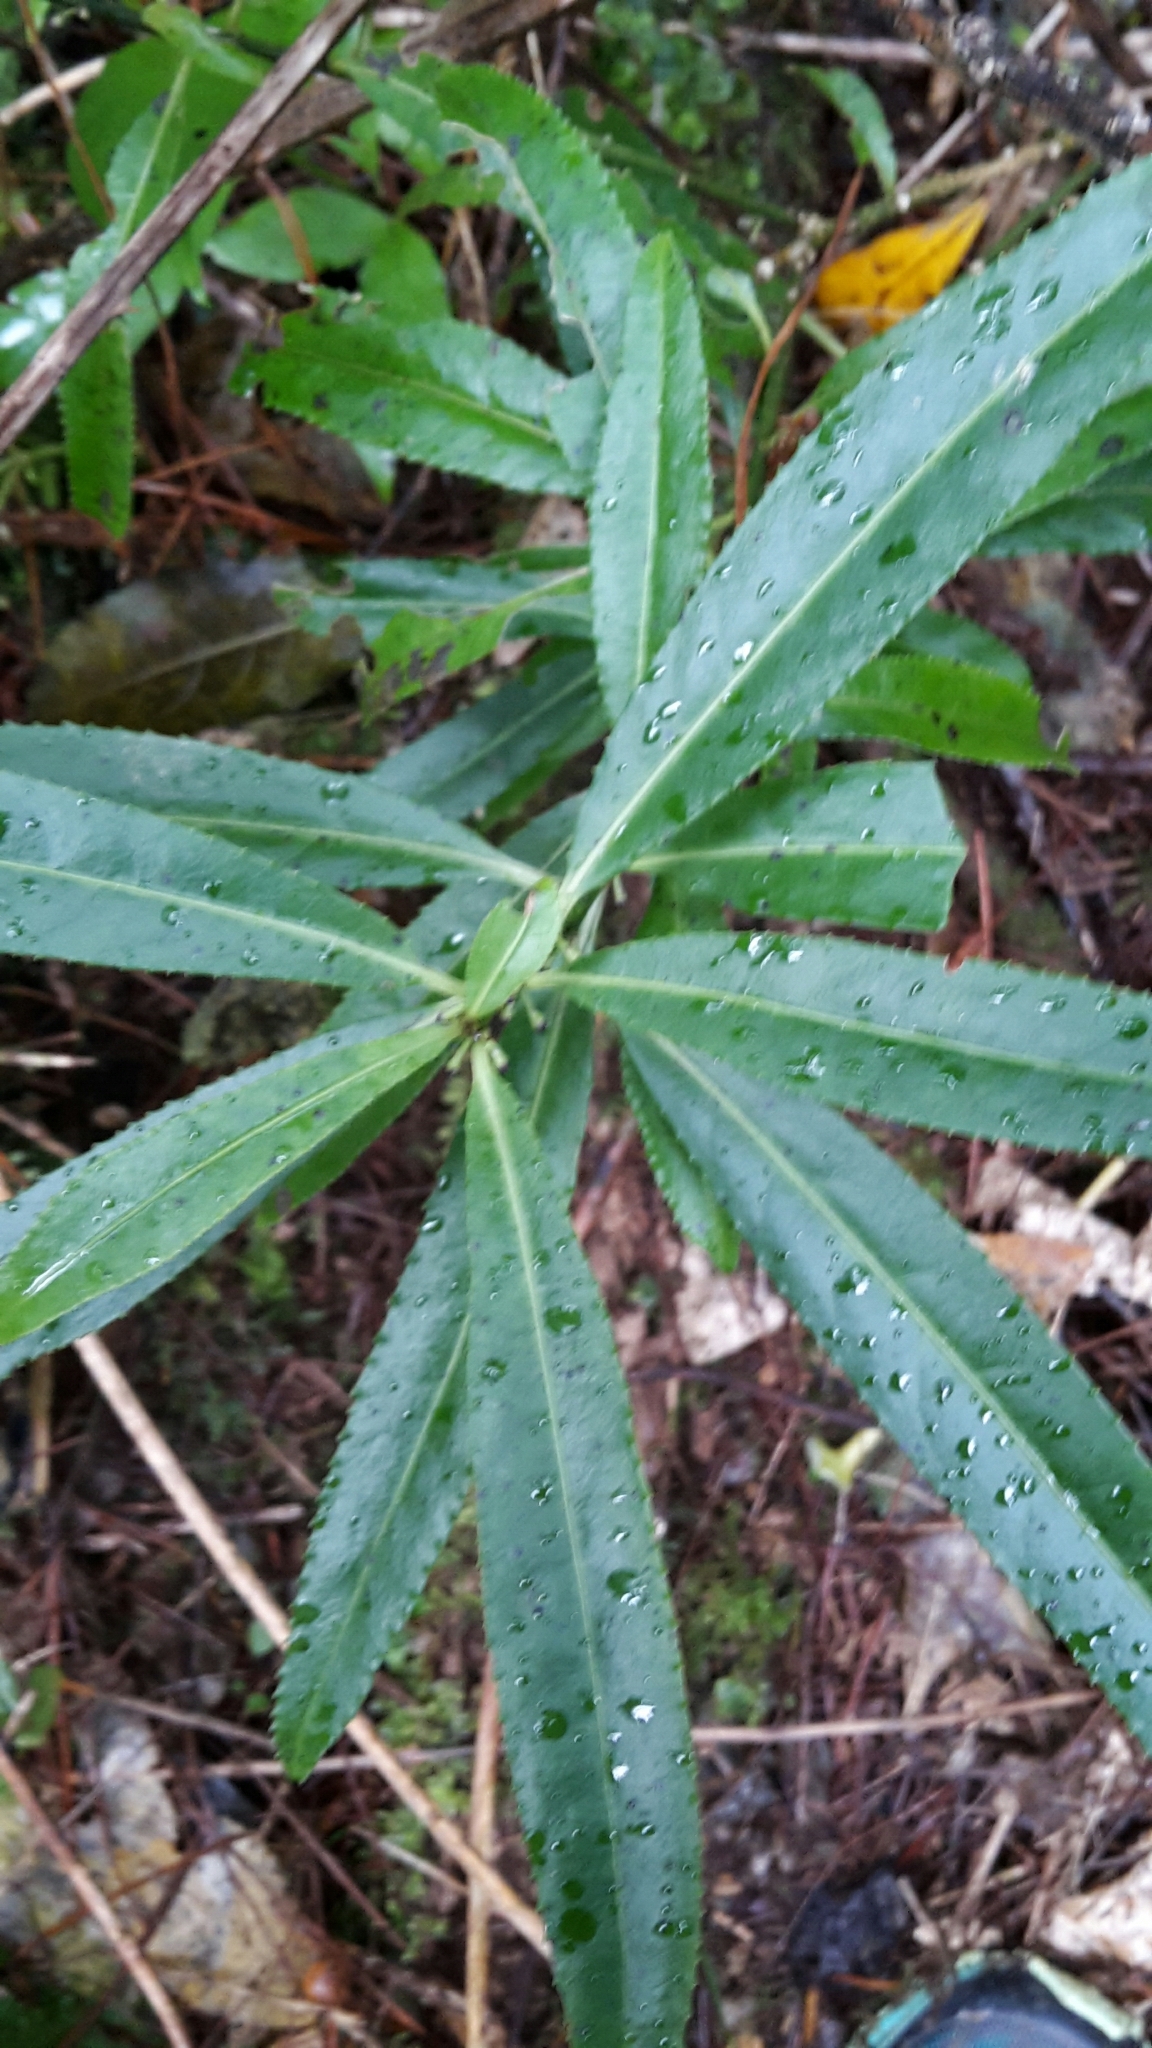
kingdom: Plantae
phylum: Tracheophyta
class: Magnoliopsida
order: Malpighiales
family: Violaceae
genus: Melicytus
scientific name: Melicytus lanceolatus
